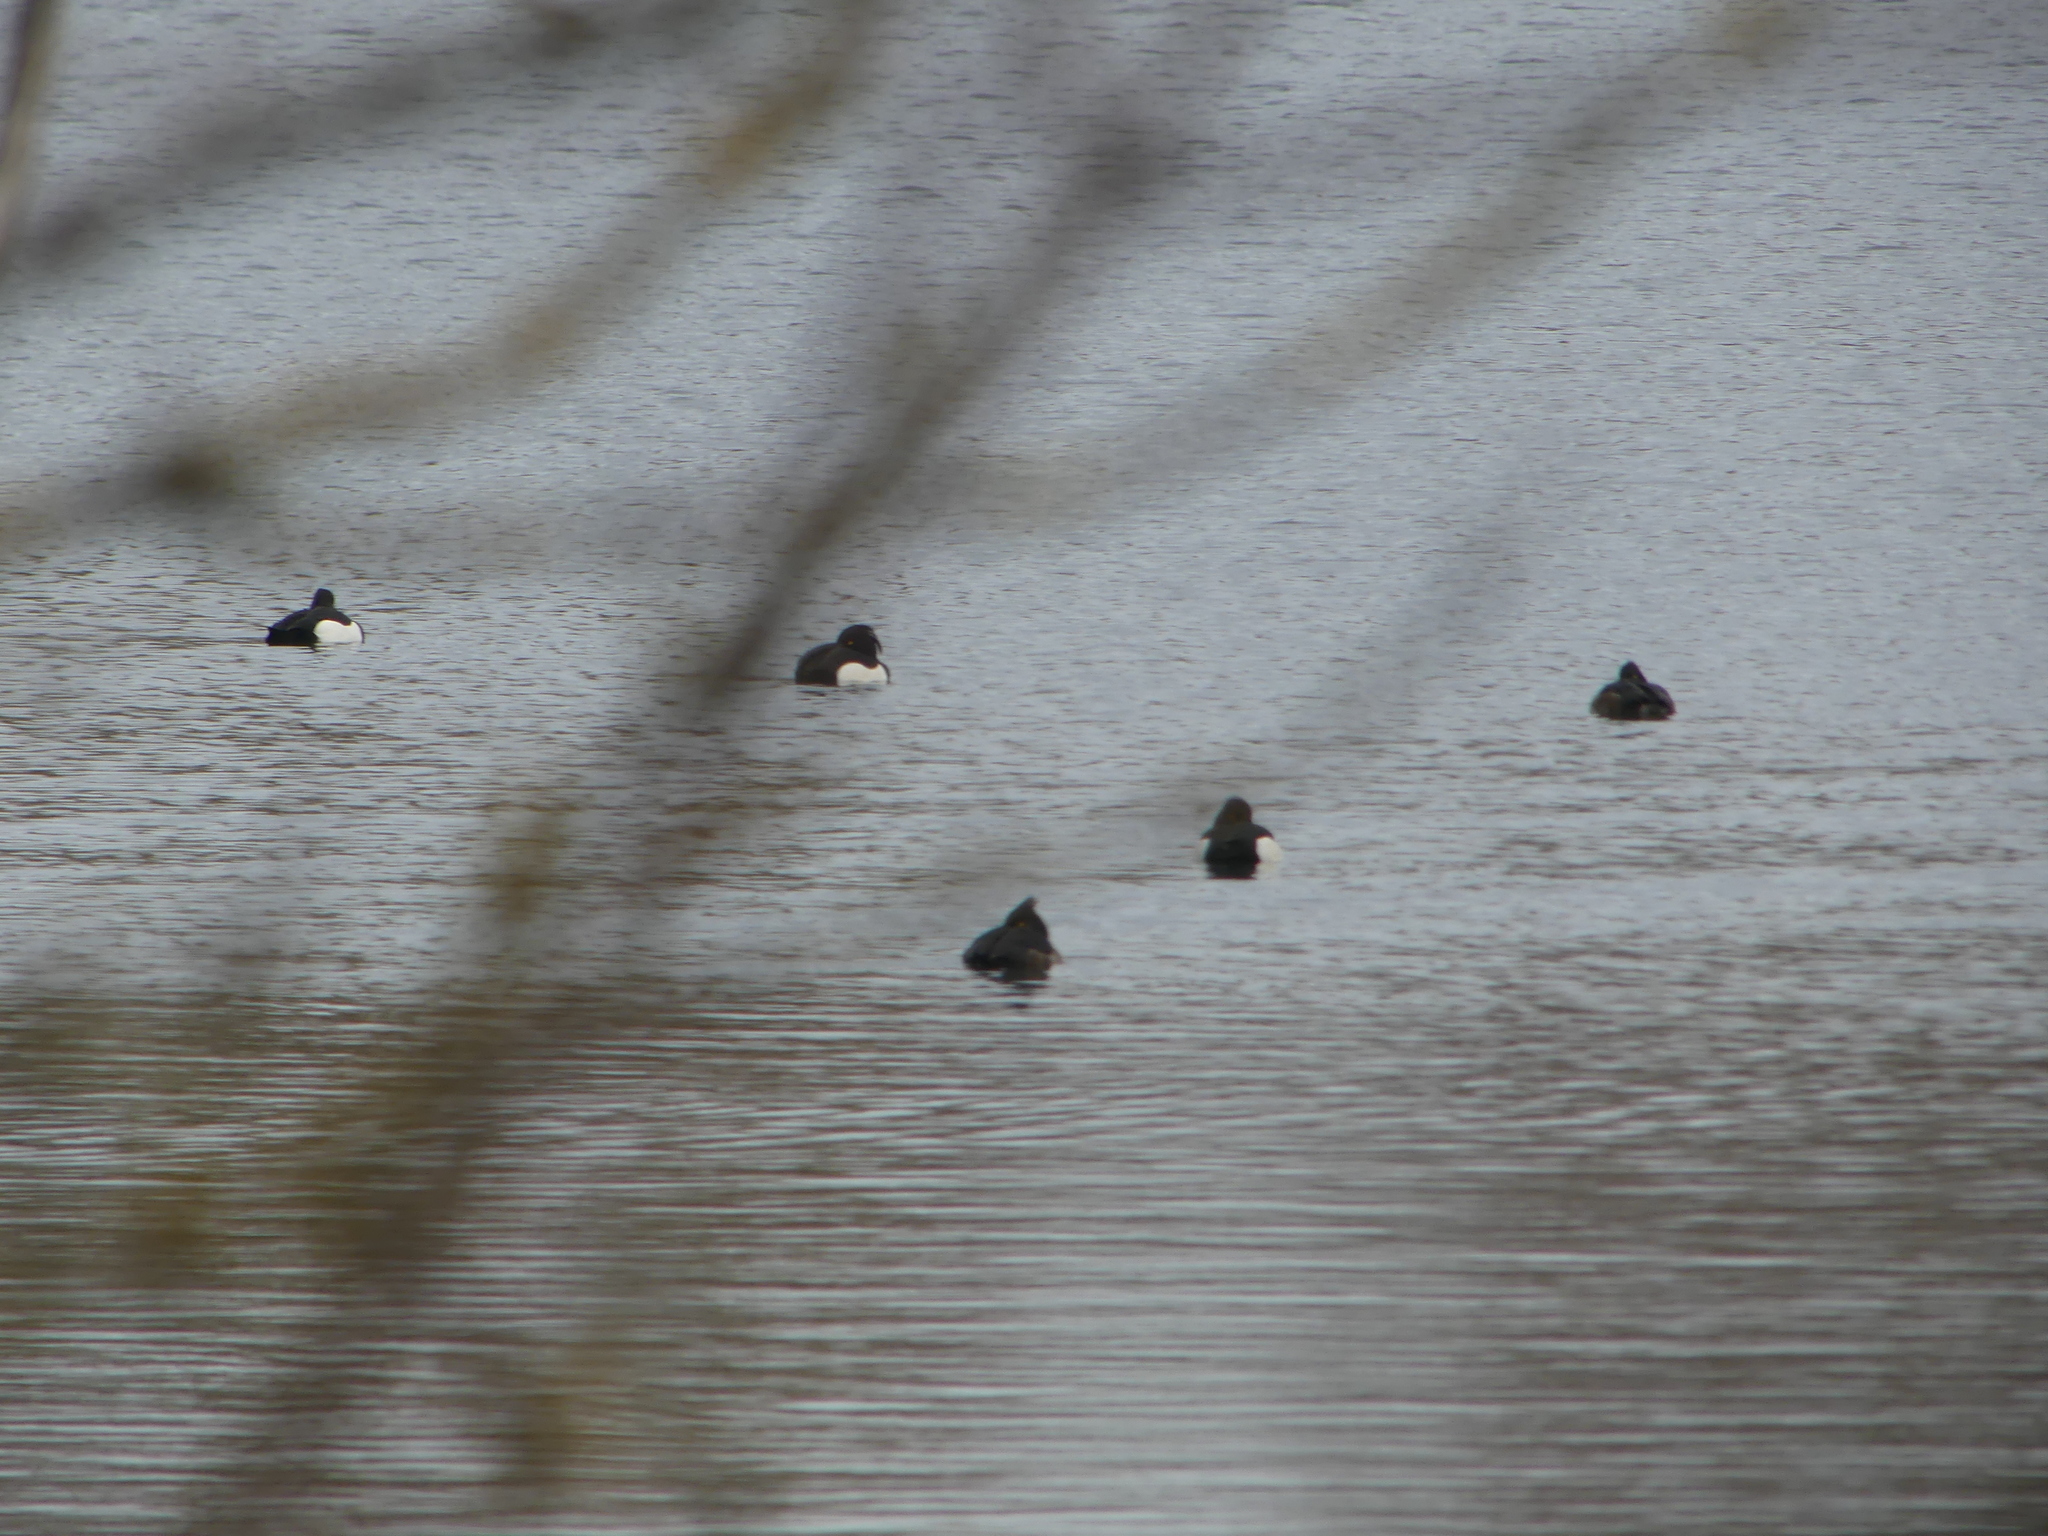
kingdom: Animalia
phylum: Chordata
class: Aves
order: Anseriformes
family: Anatidae
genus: Aythya
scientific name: Aythya fuligula
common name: Tufted duck
